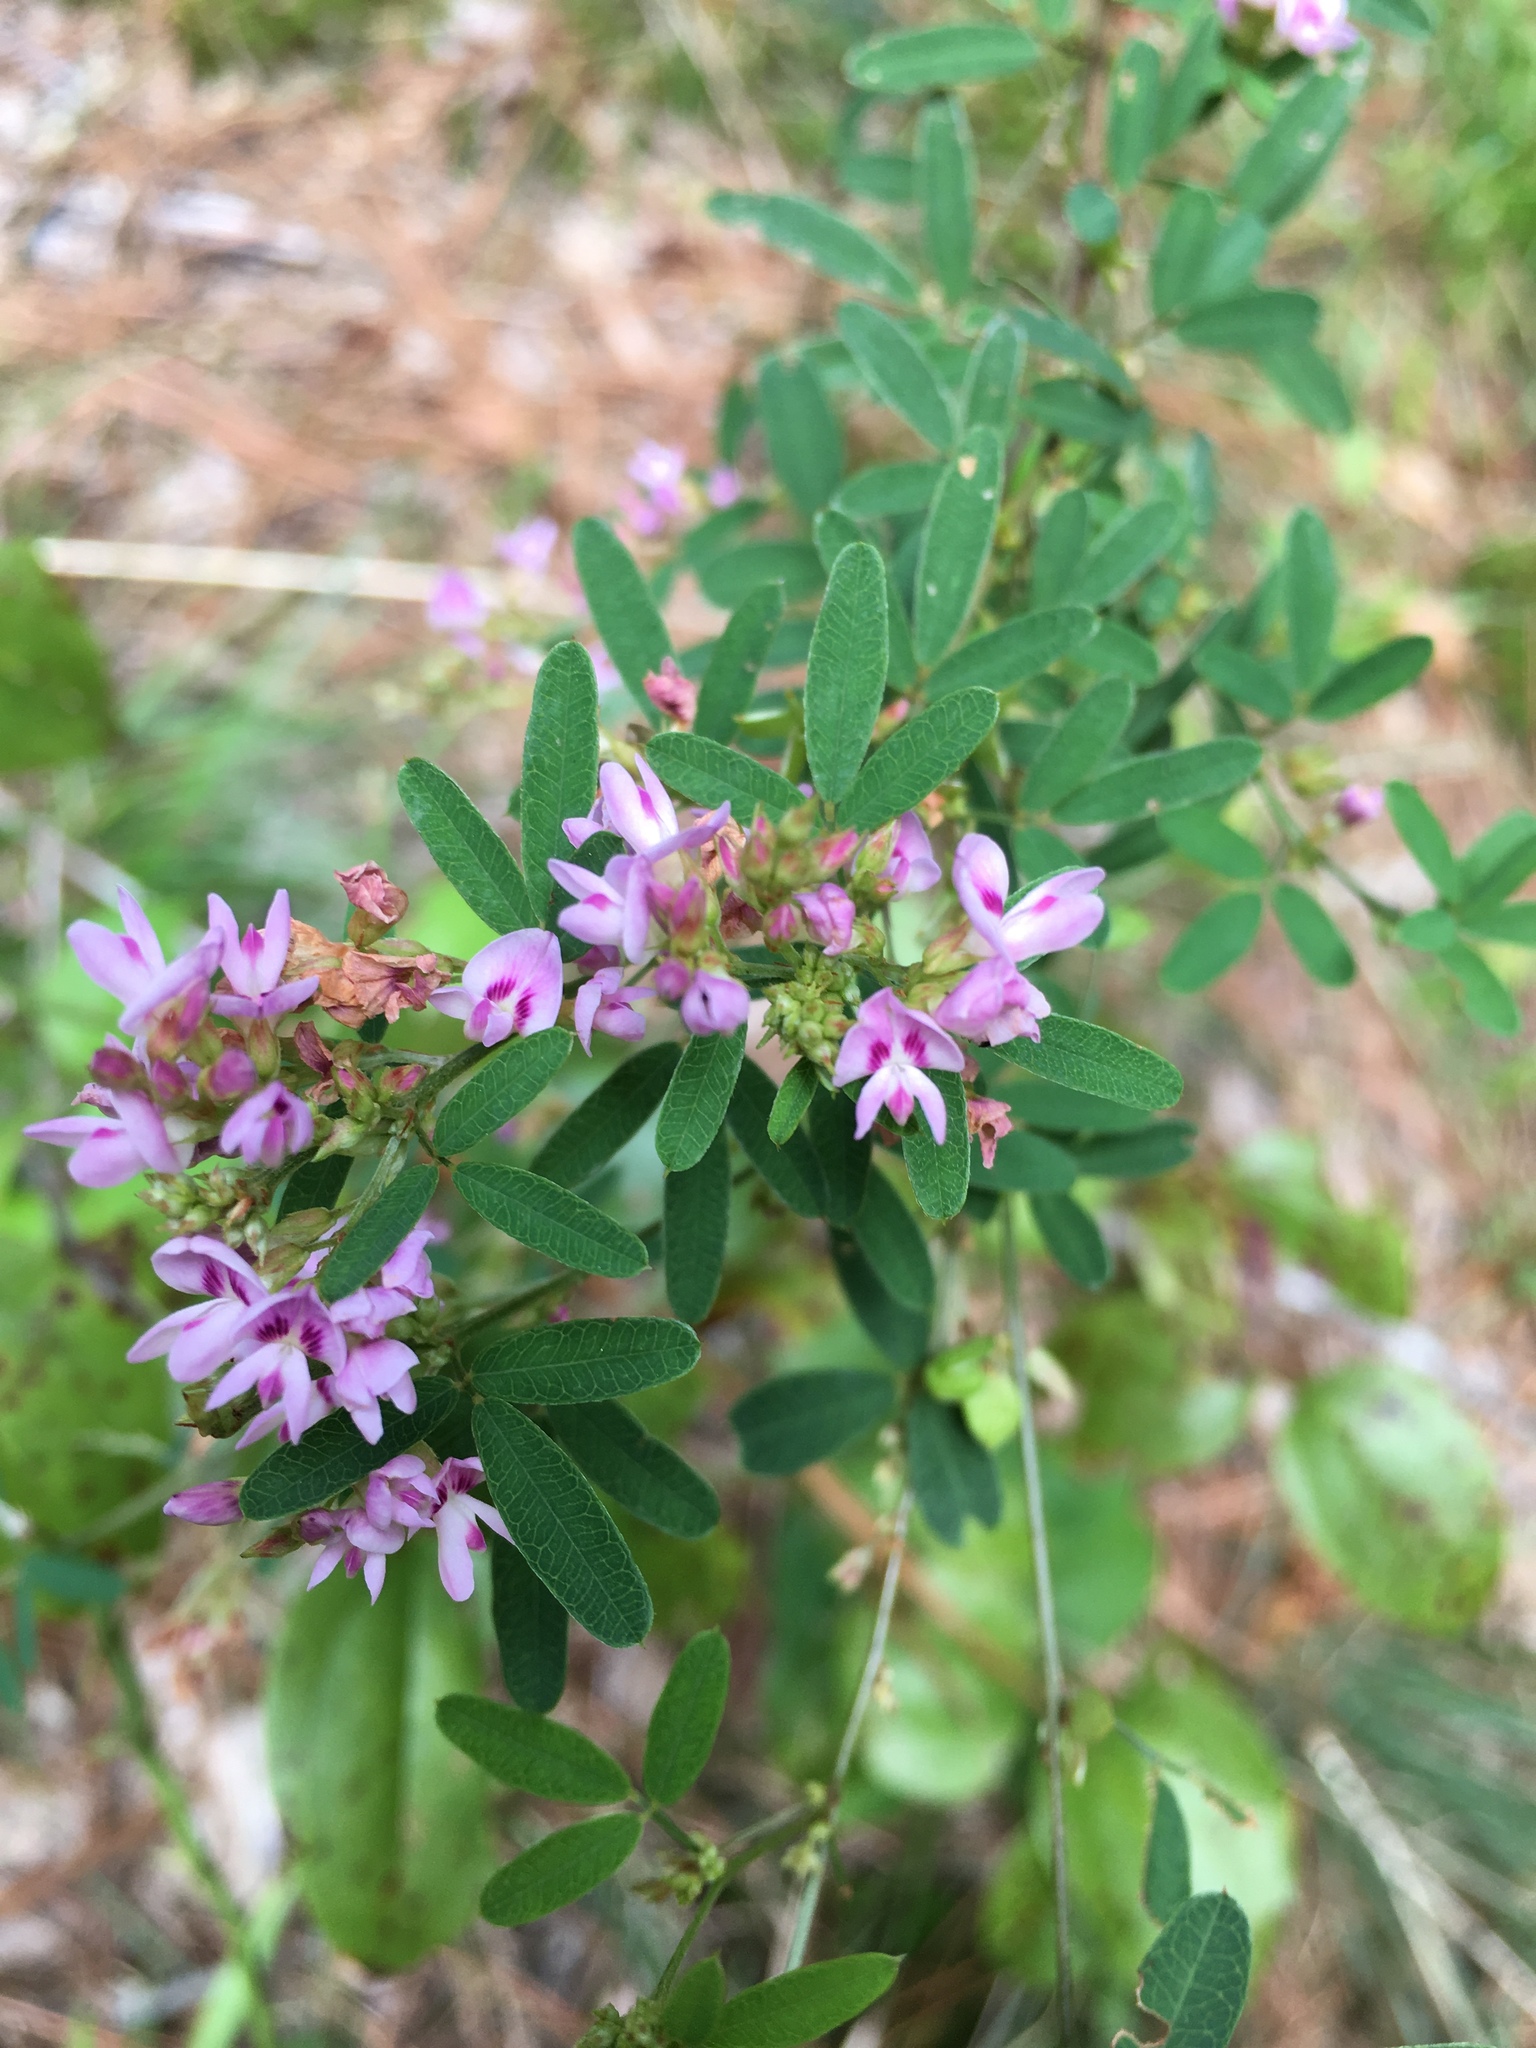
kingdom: Plantae
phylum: Tracheophyta
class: Magnoliopsida
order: Fabales
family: Fabaceae
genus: Lespedeza
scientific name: Lespedeza virginica
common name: Slender bush-clover
